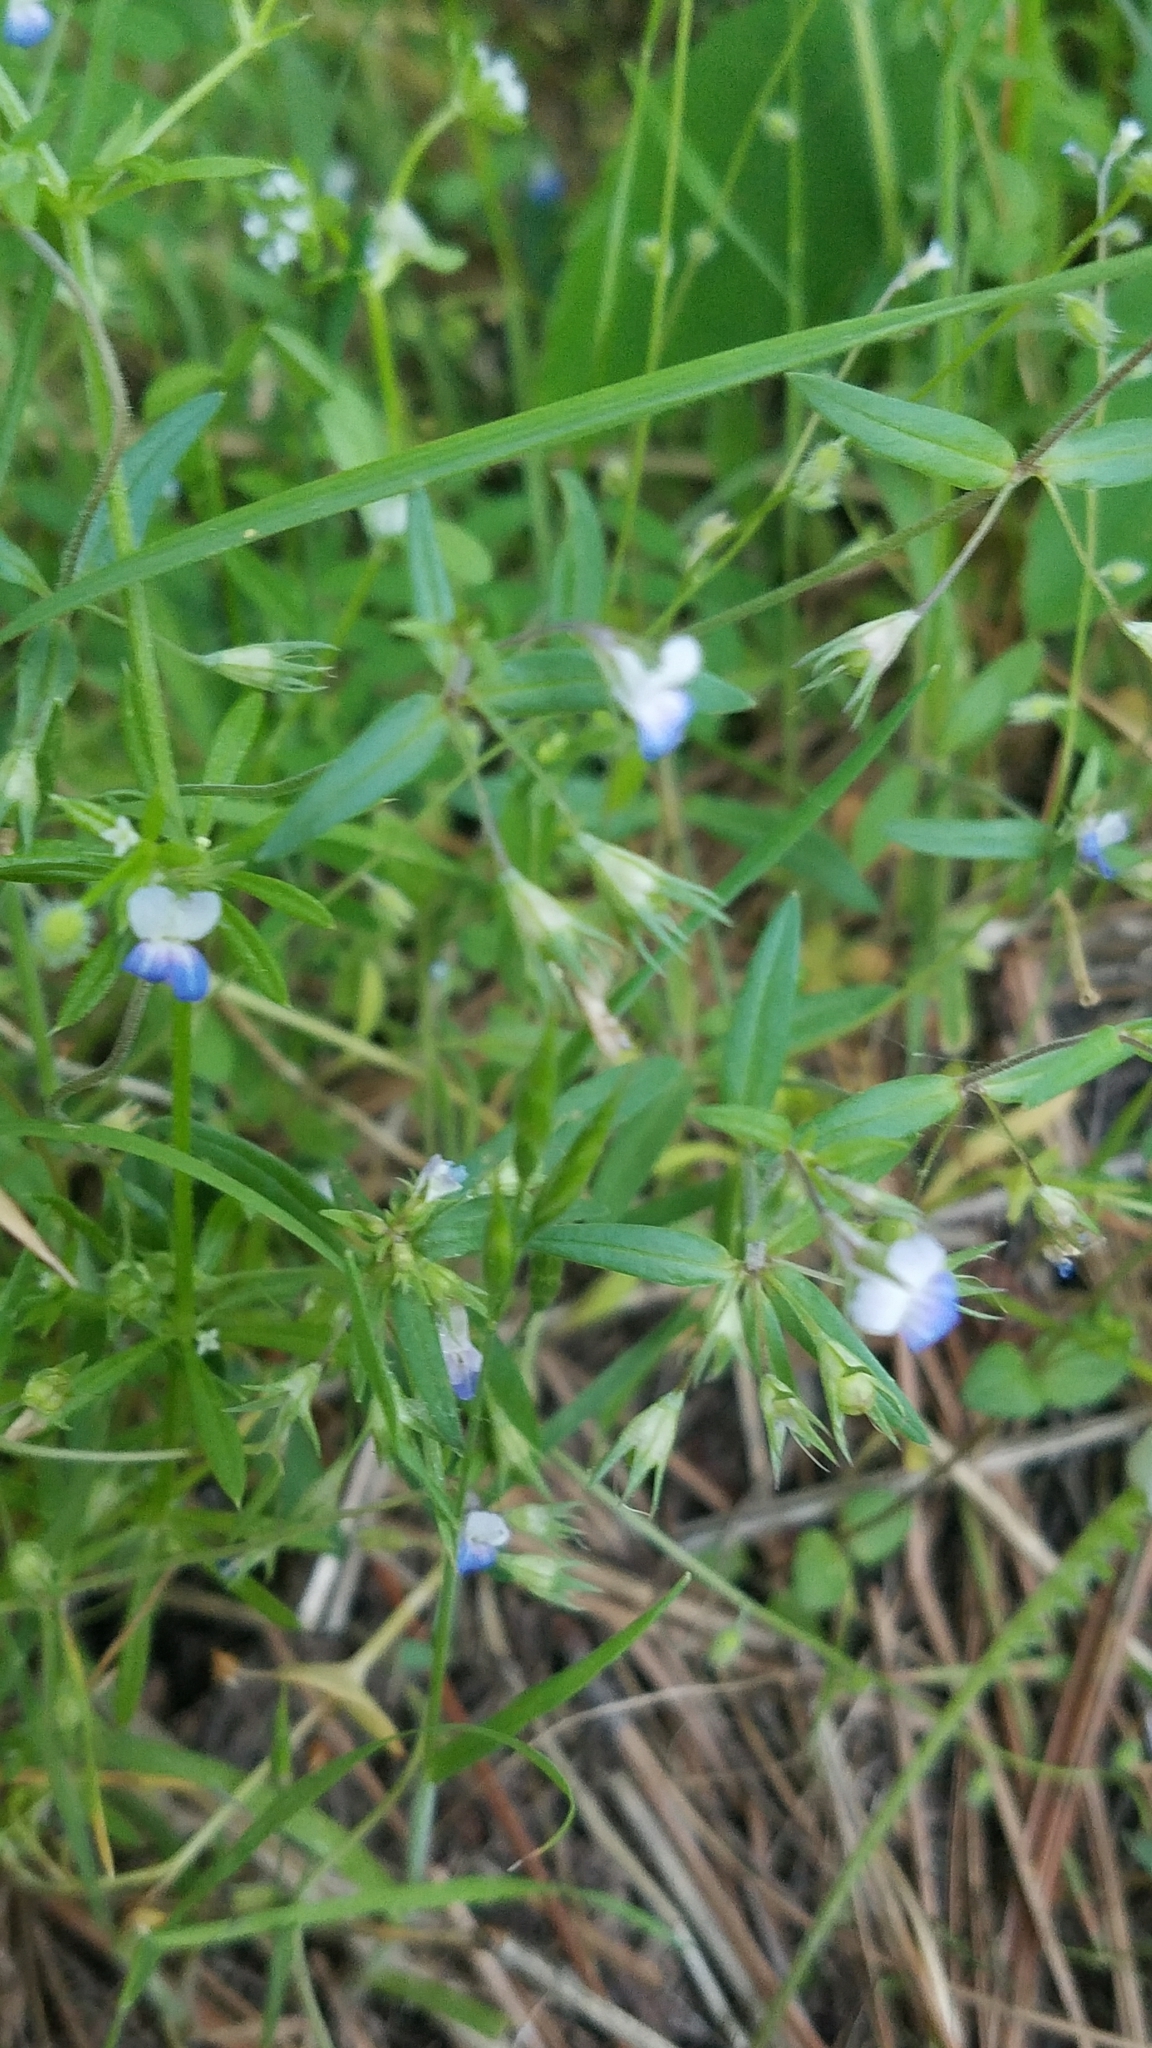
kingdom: Plantae
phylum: Tracheophyta
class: Magnoliopsida
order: Lamiales
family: Plantaginaceae
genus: Collinsia
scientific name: Collinsia parviflora
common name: Blue-lips
